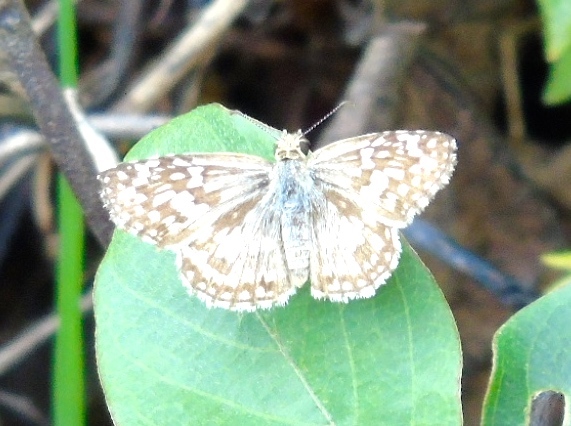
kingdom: Animalia
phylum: Arthropoda
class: Insecta
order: Lepidoptera
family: Hesperiidae
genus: Burnsius
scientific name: Burnsius
